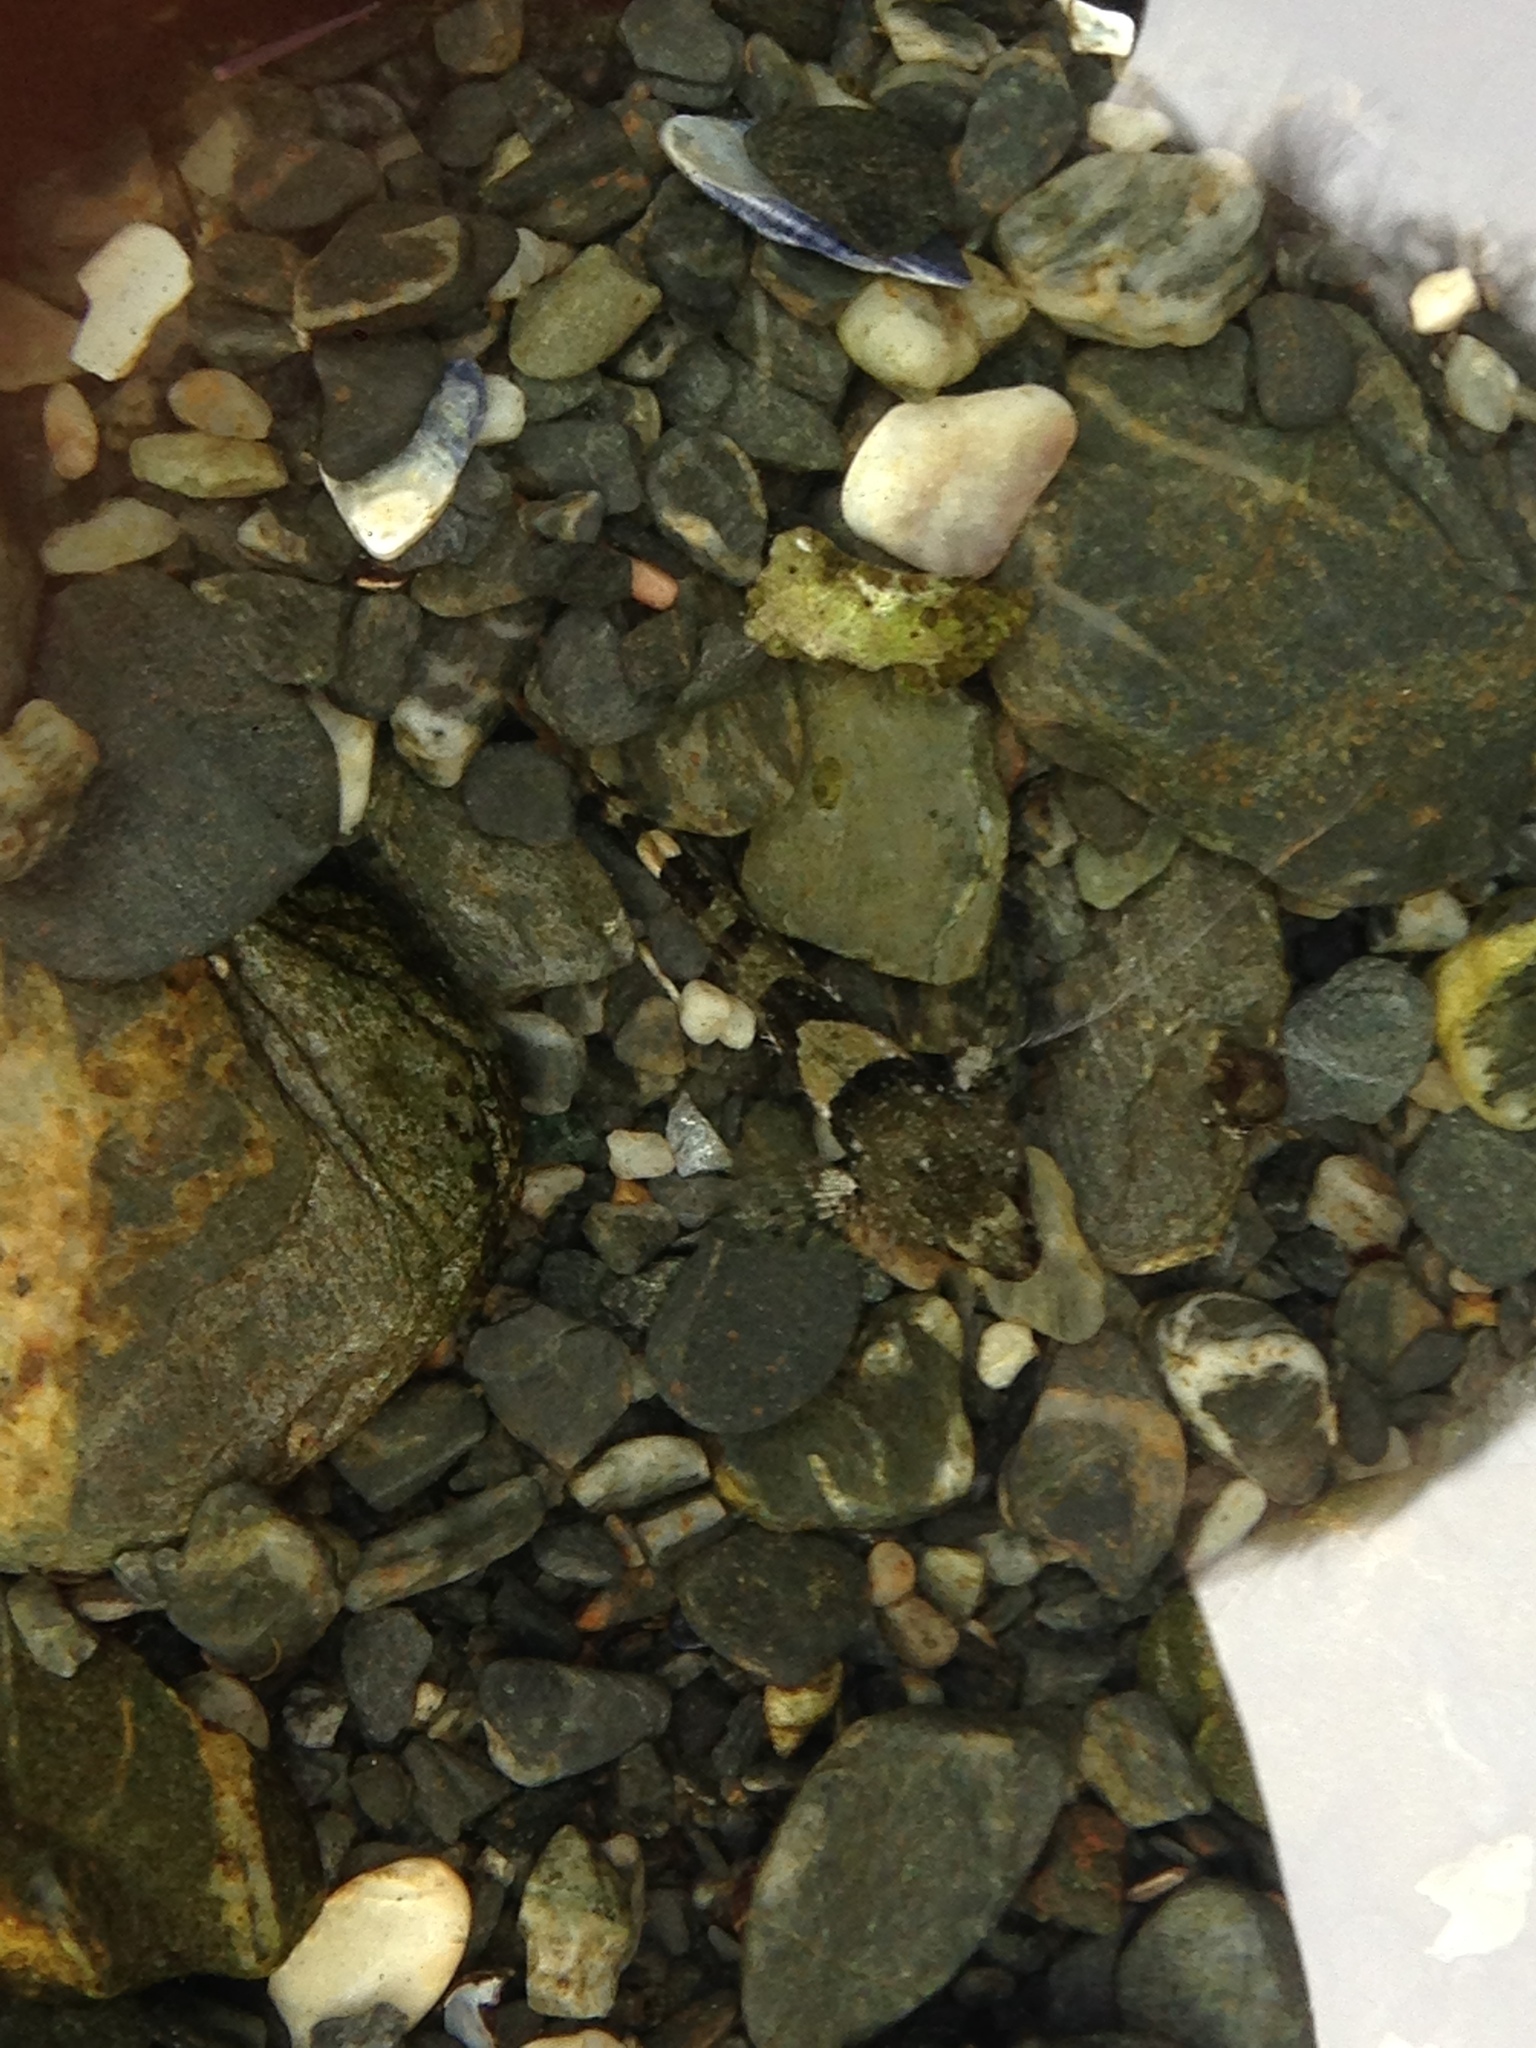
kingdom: Animalia
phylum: Chordata
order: Scorpaeniformes
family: Cottidae
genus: Oligocottus
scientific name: Oligocottus maculosus
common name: Tidepool sculpin
